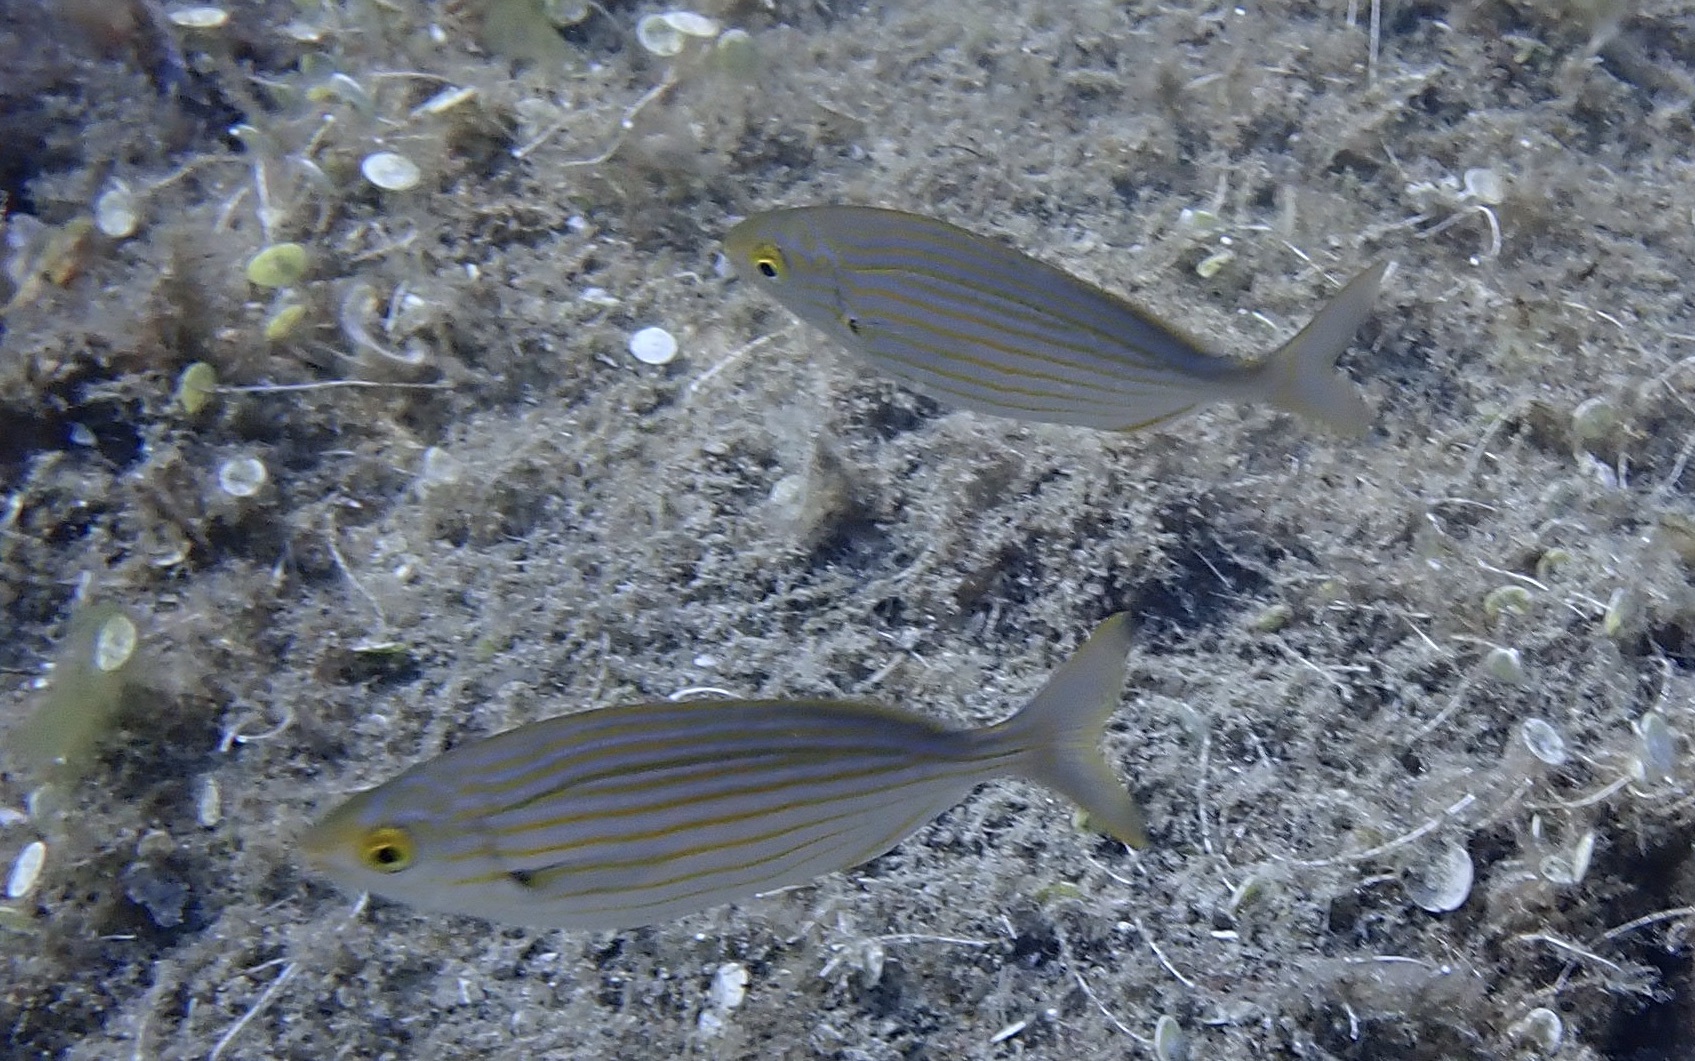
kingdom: Animalia
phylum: Chordata
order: Perciformes
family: Sparidae
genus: Sarpa
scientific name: Sarpa salpa
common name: Salema
